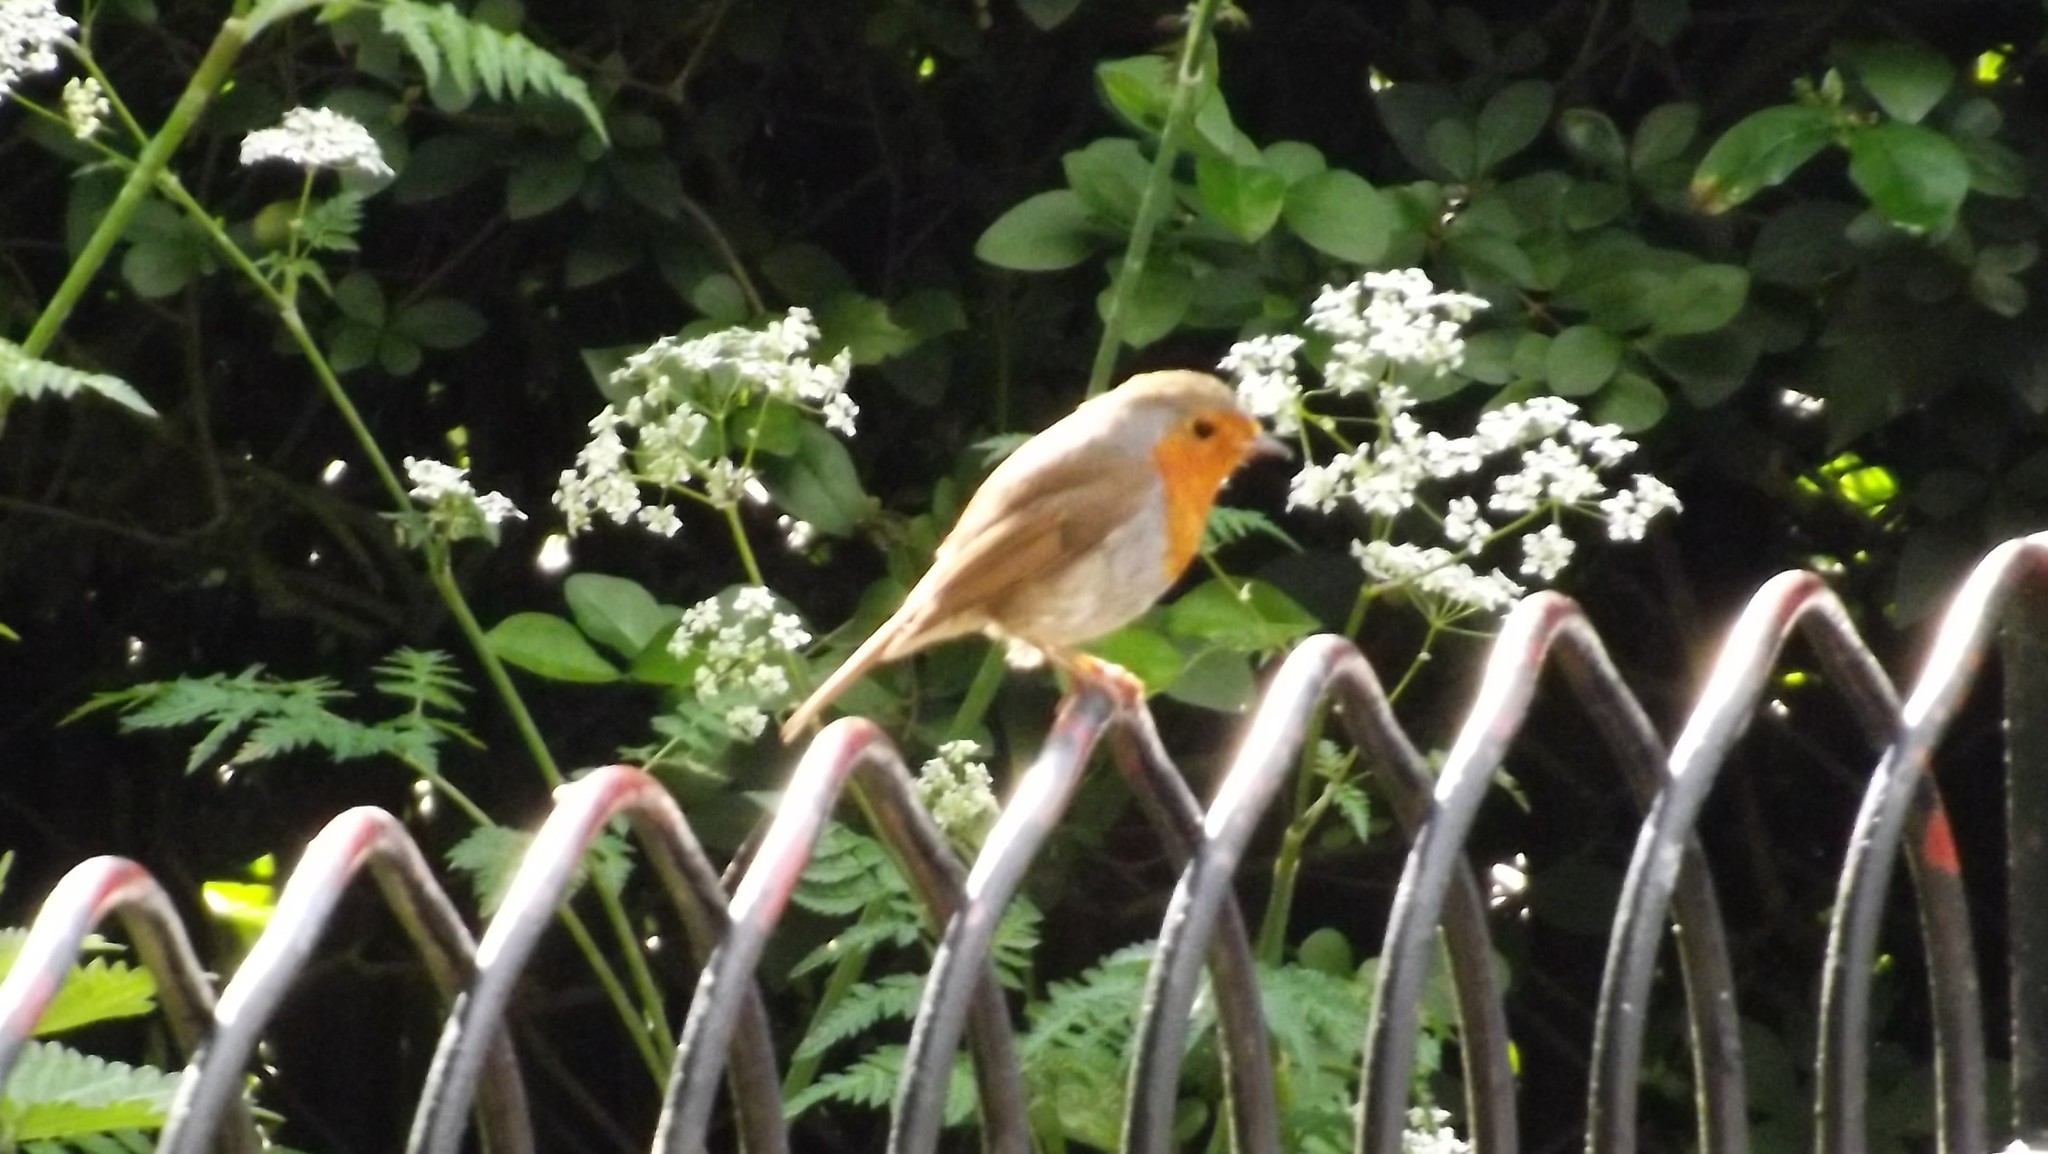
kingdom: Animalia
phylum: Chordata
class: Aves
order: Passeriformes
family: Muscicapidae
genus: Erithacus
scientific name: Erithacus rubecula
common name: European robin
